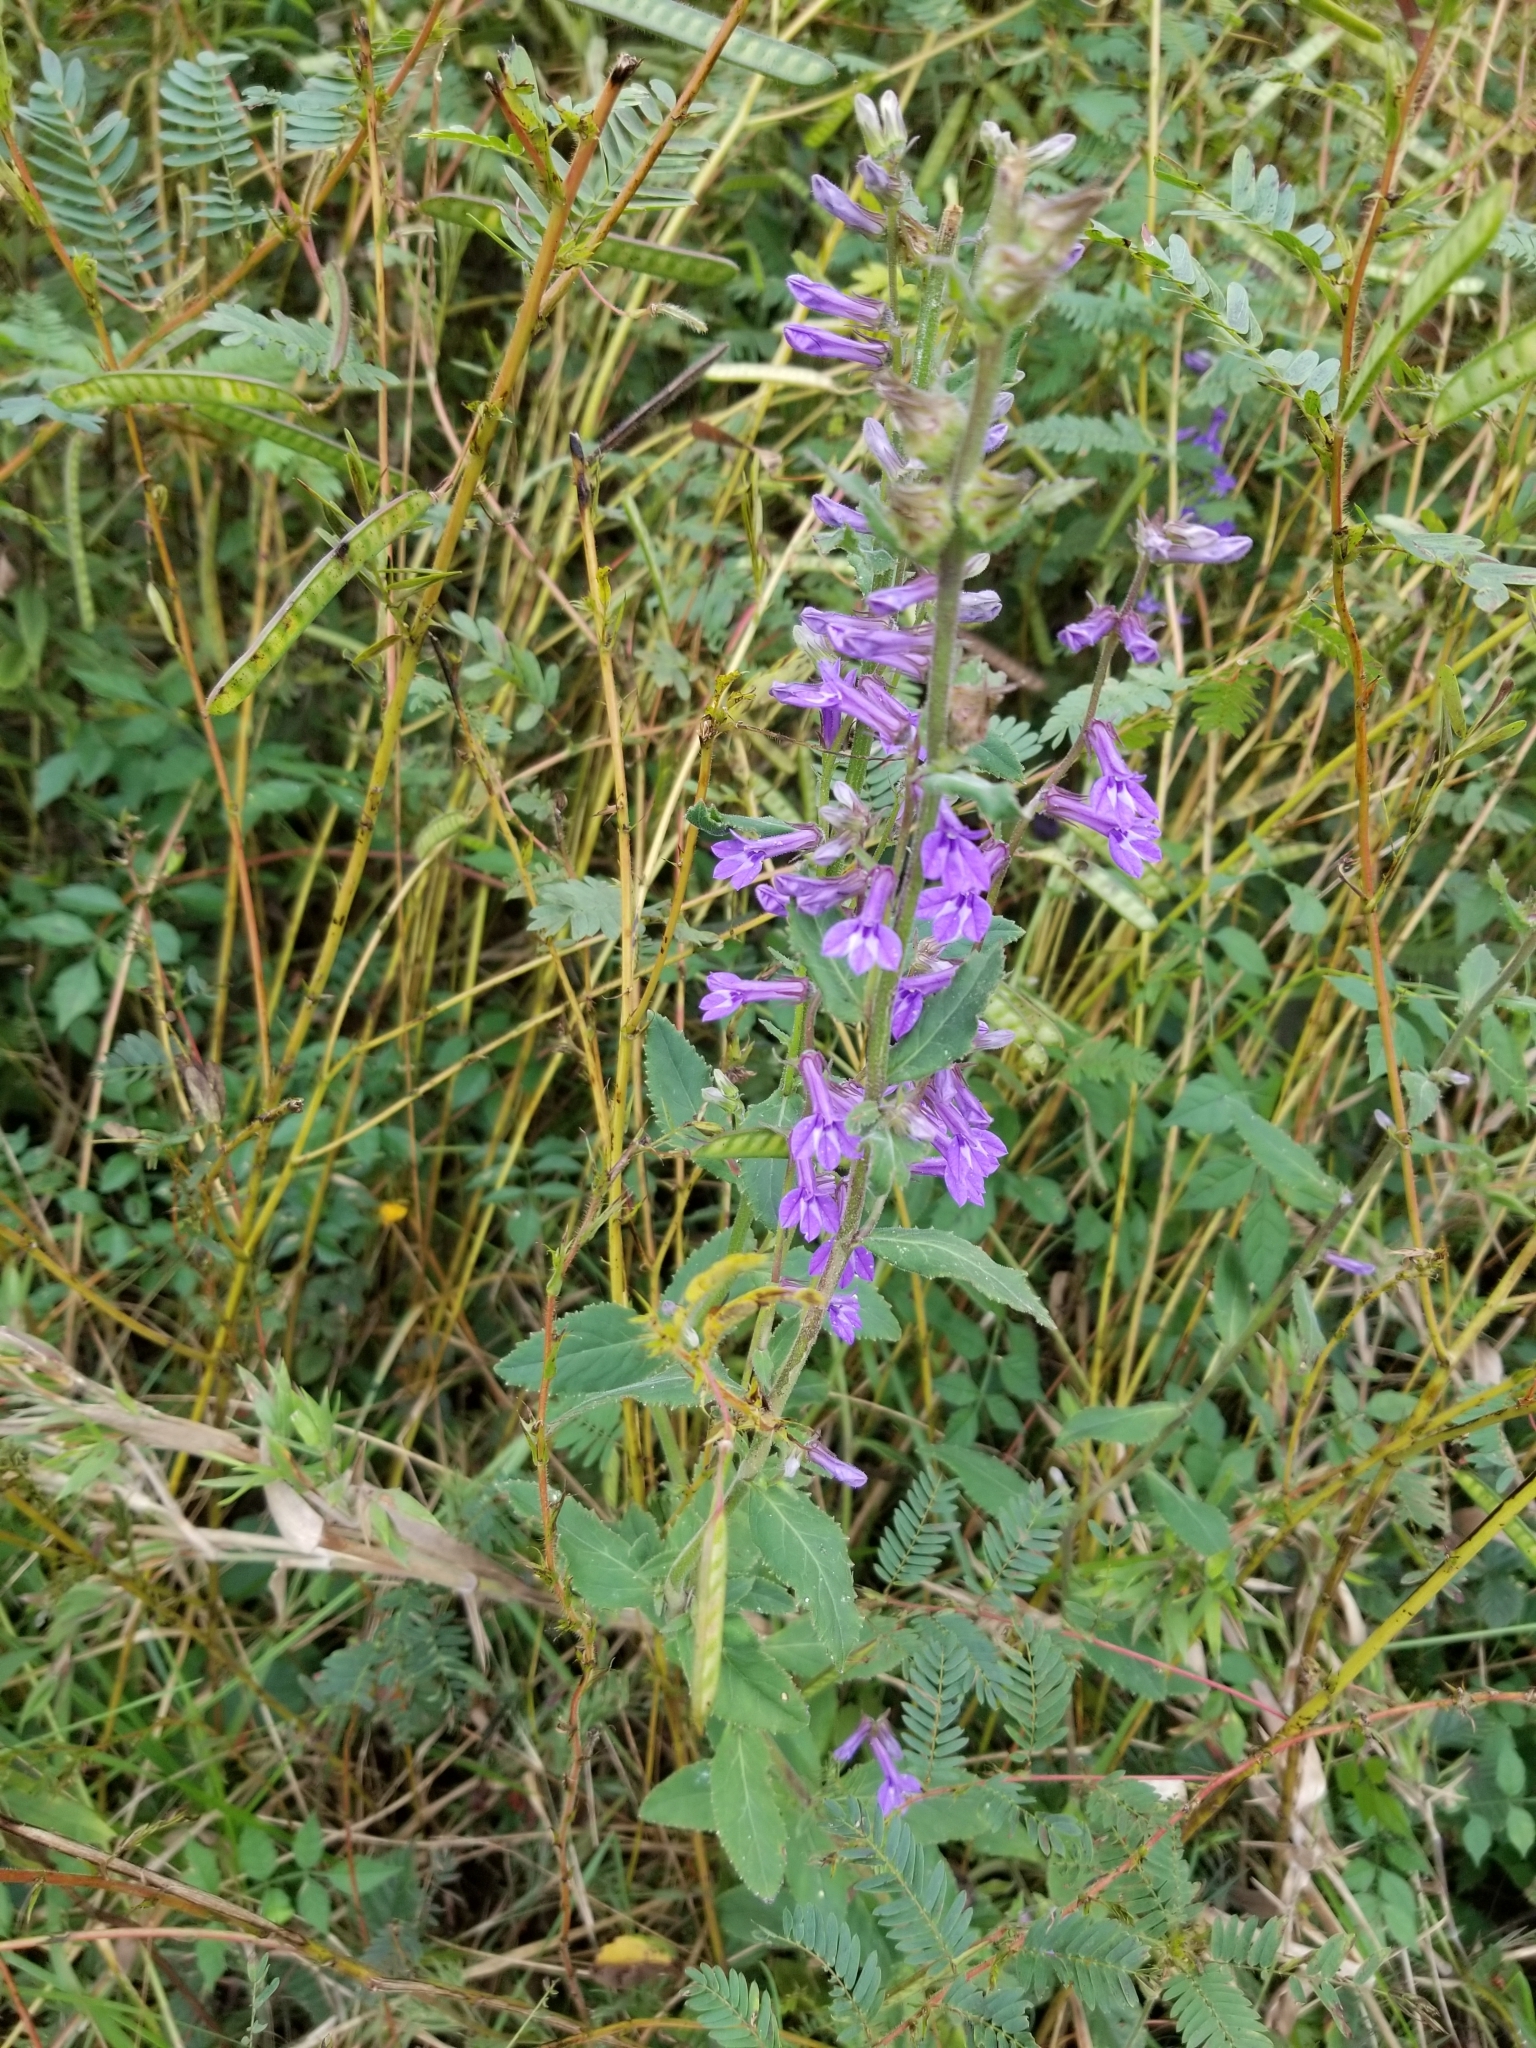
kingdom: Plantae
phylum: Tracheophyta
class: Magnoliopsida
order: Asterales
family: Campanulaceae
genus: Lobelia
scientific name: Lobelia puberula
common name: Purple dewdrop
